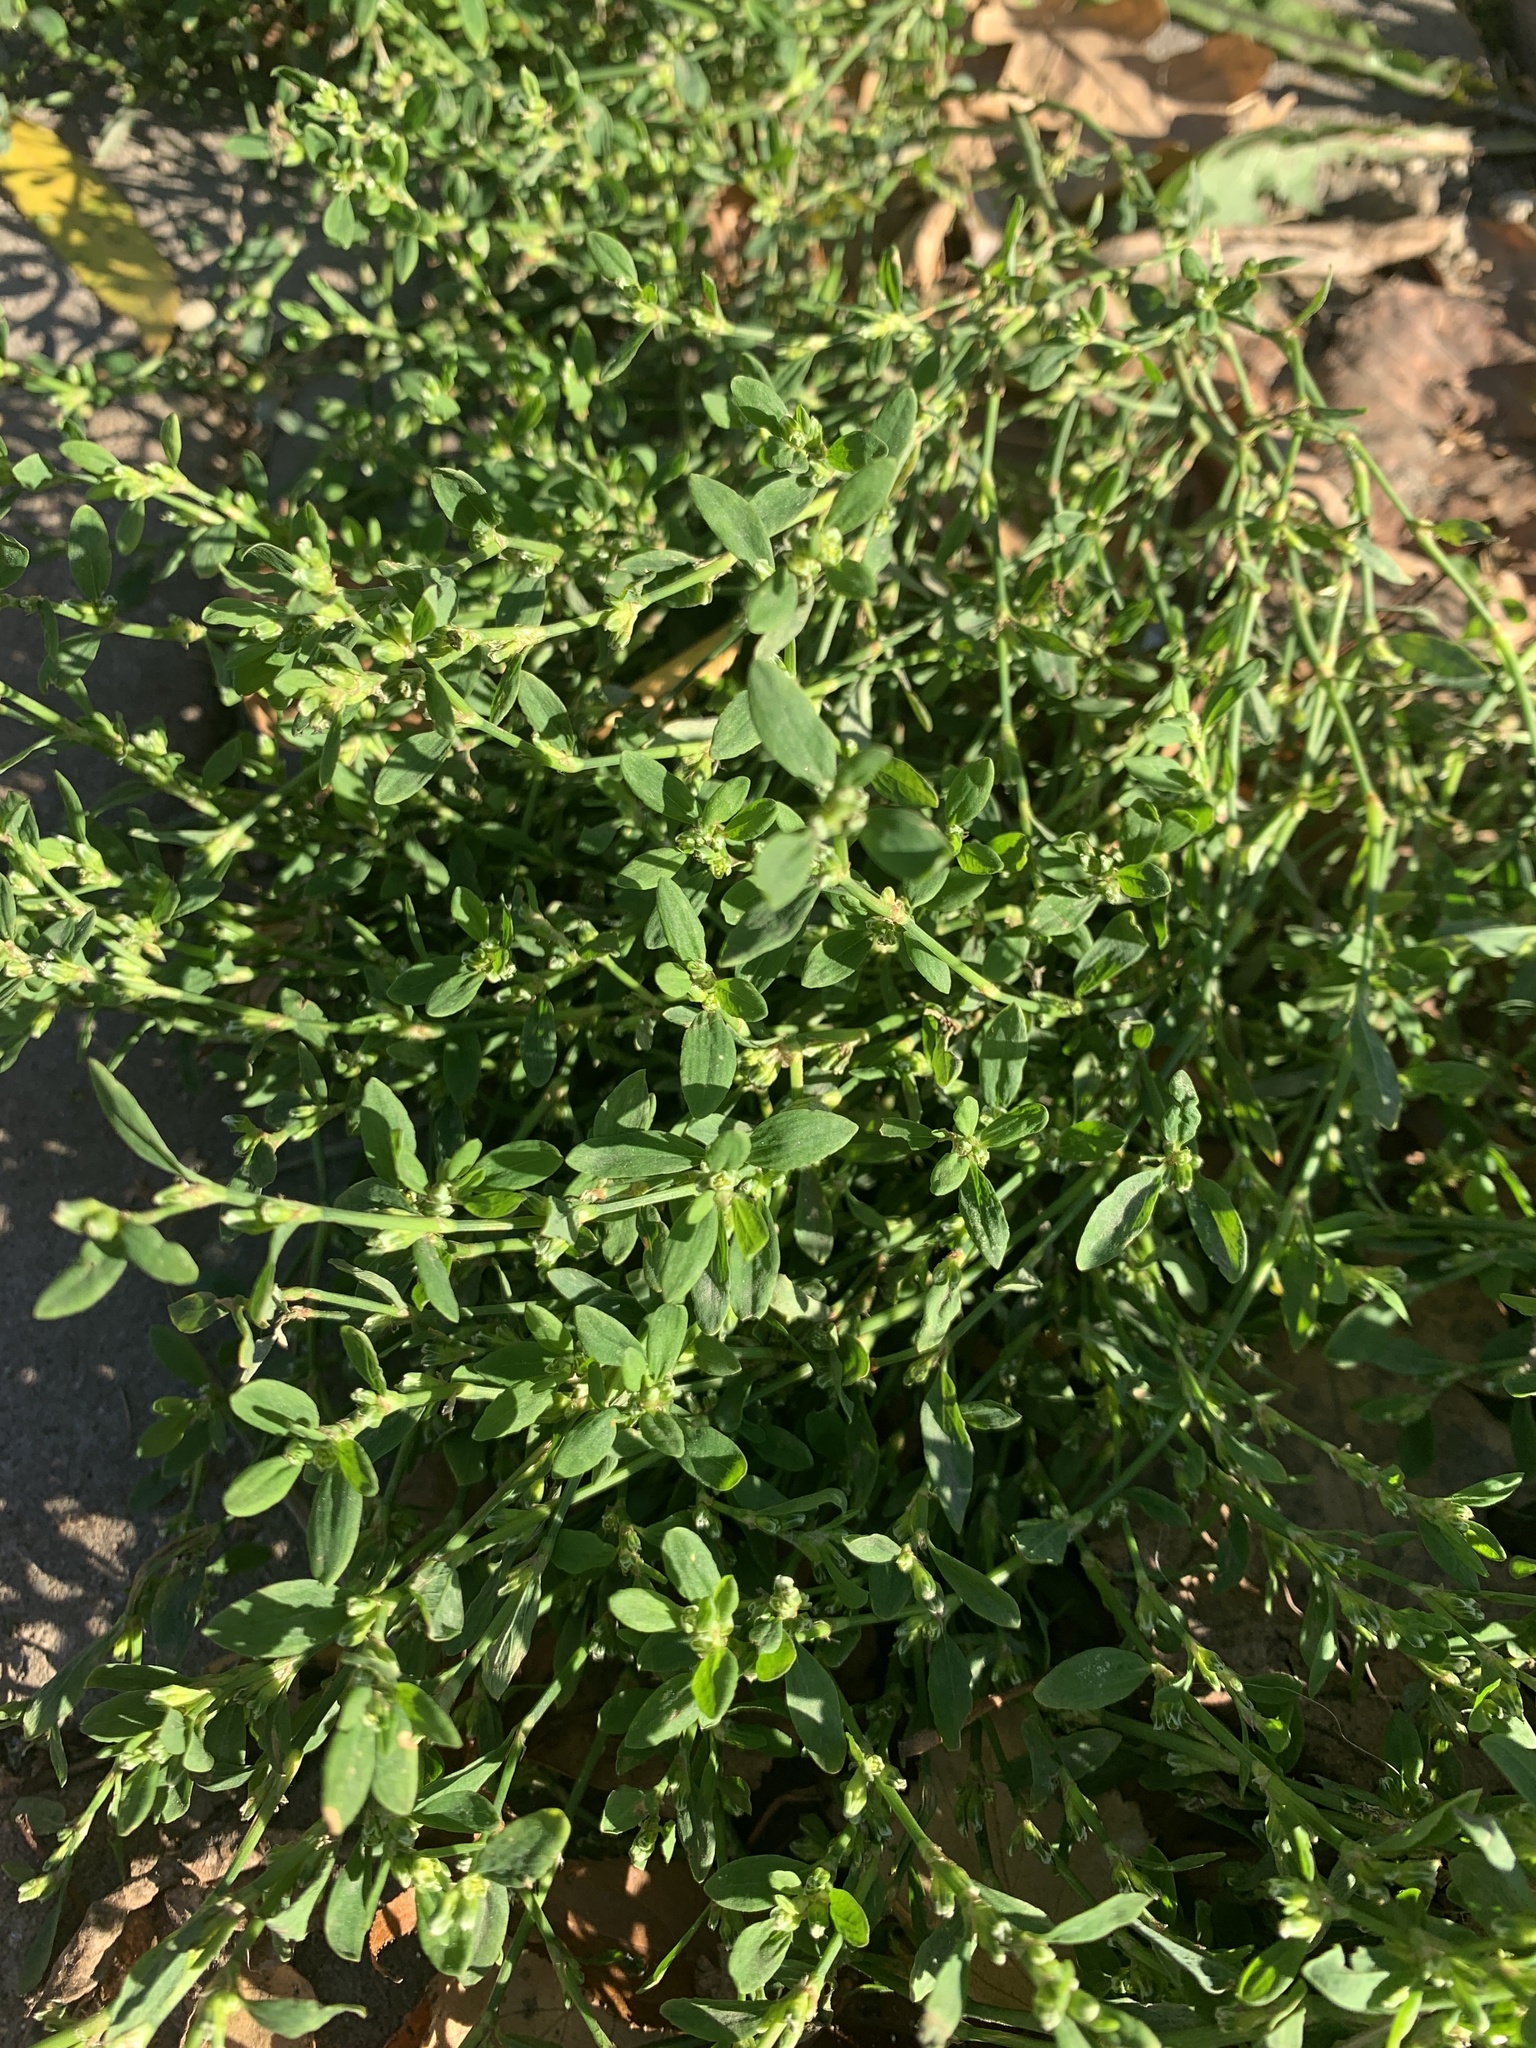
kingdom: Plantae
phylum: Tracheophyta
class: Magnoliopsida
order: Caryophyllales
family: Polygonaceae
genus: Polygonum
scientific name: Polygonum
